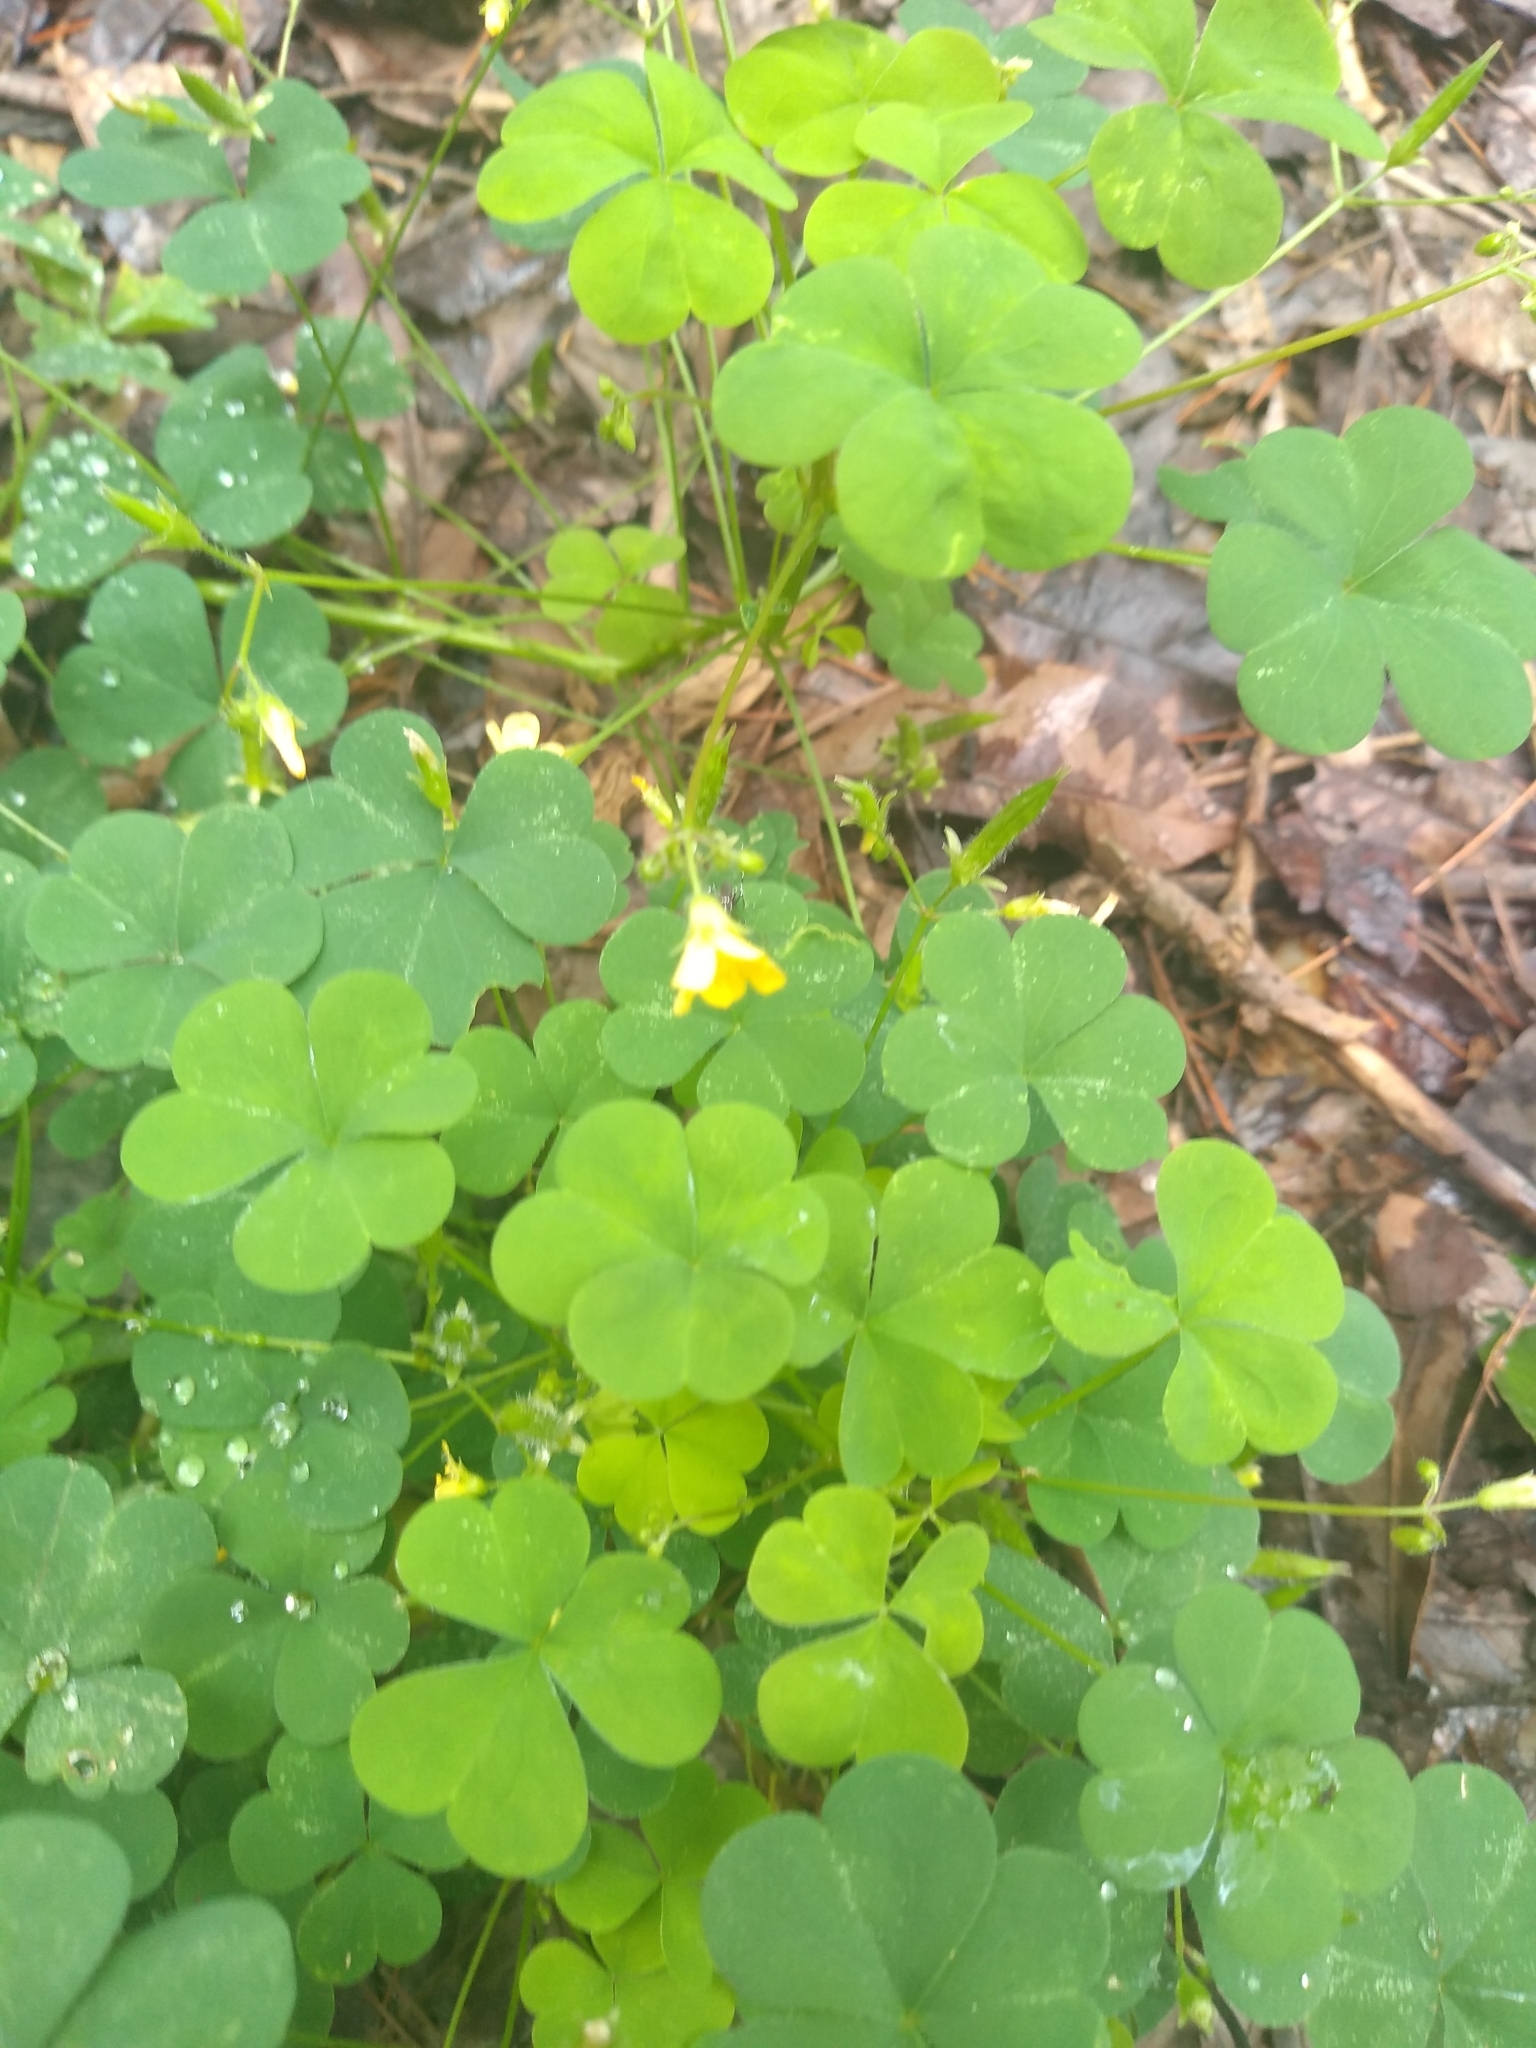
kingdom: Plantae
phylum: Tracheophyta
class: Magnoliopsida
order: Oxalidales
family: Oxalidaceae
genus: Oxalis
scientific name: Oxalis stricta
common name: Upright yellow-sorrel
